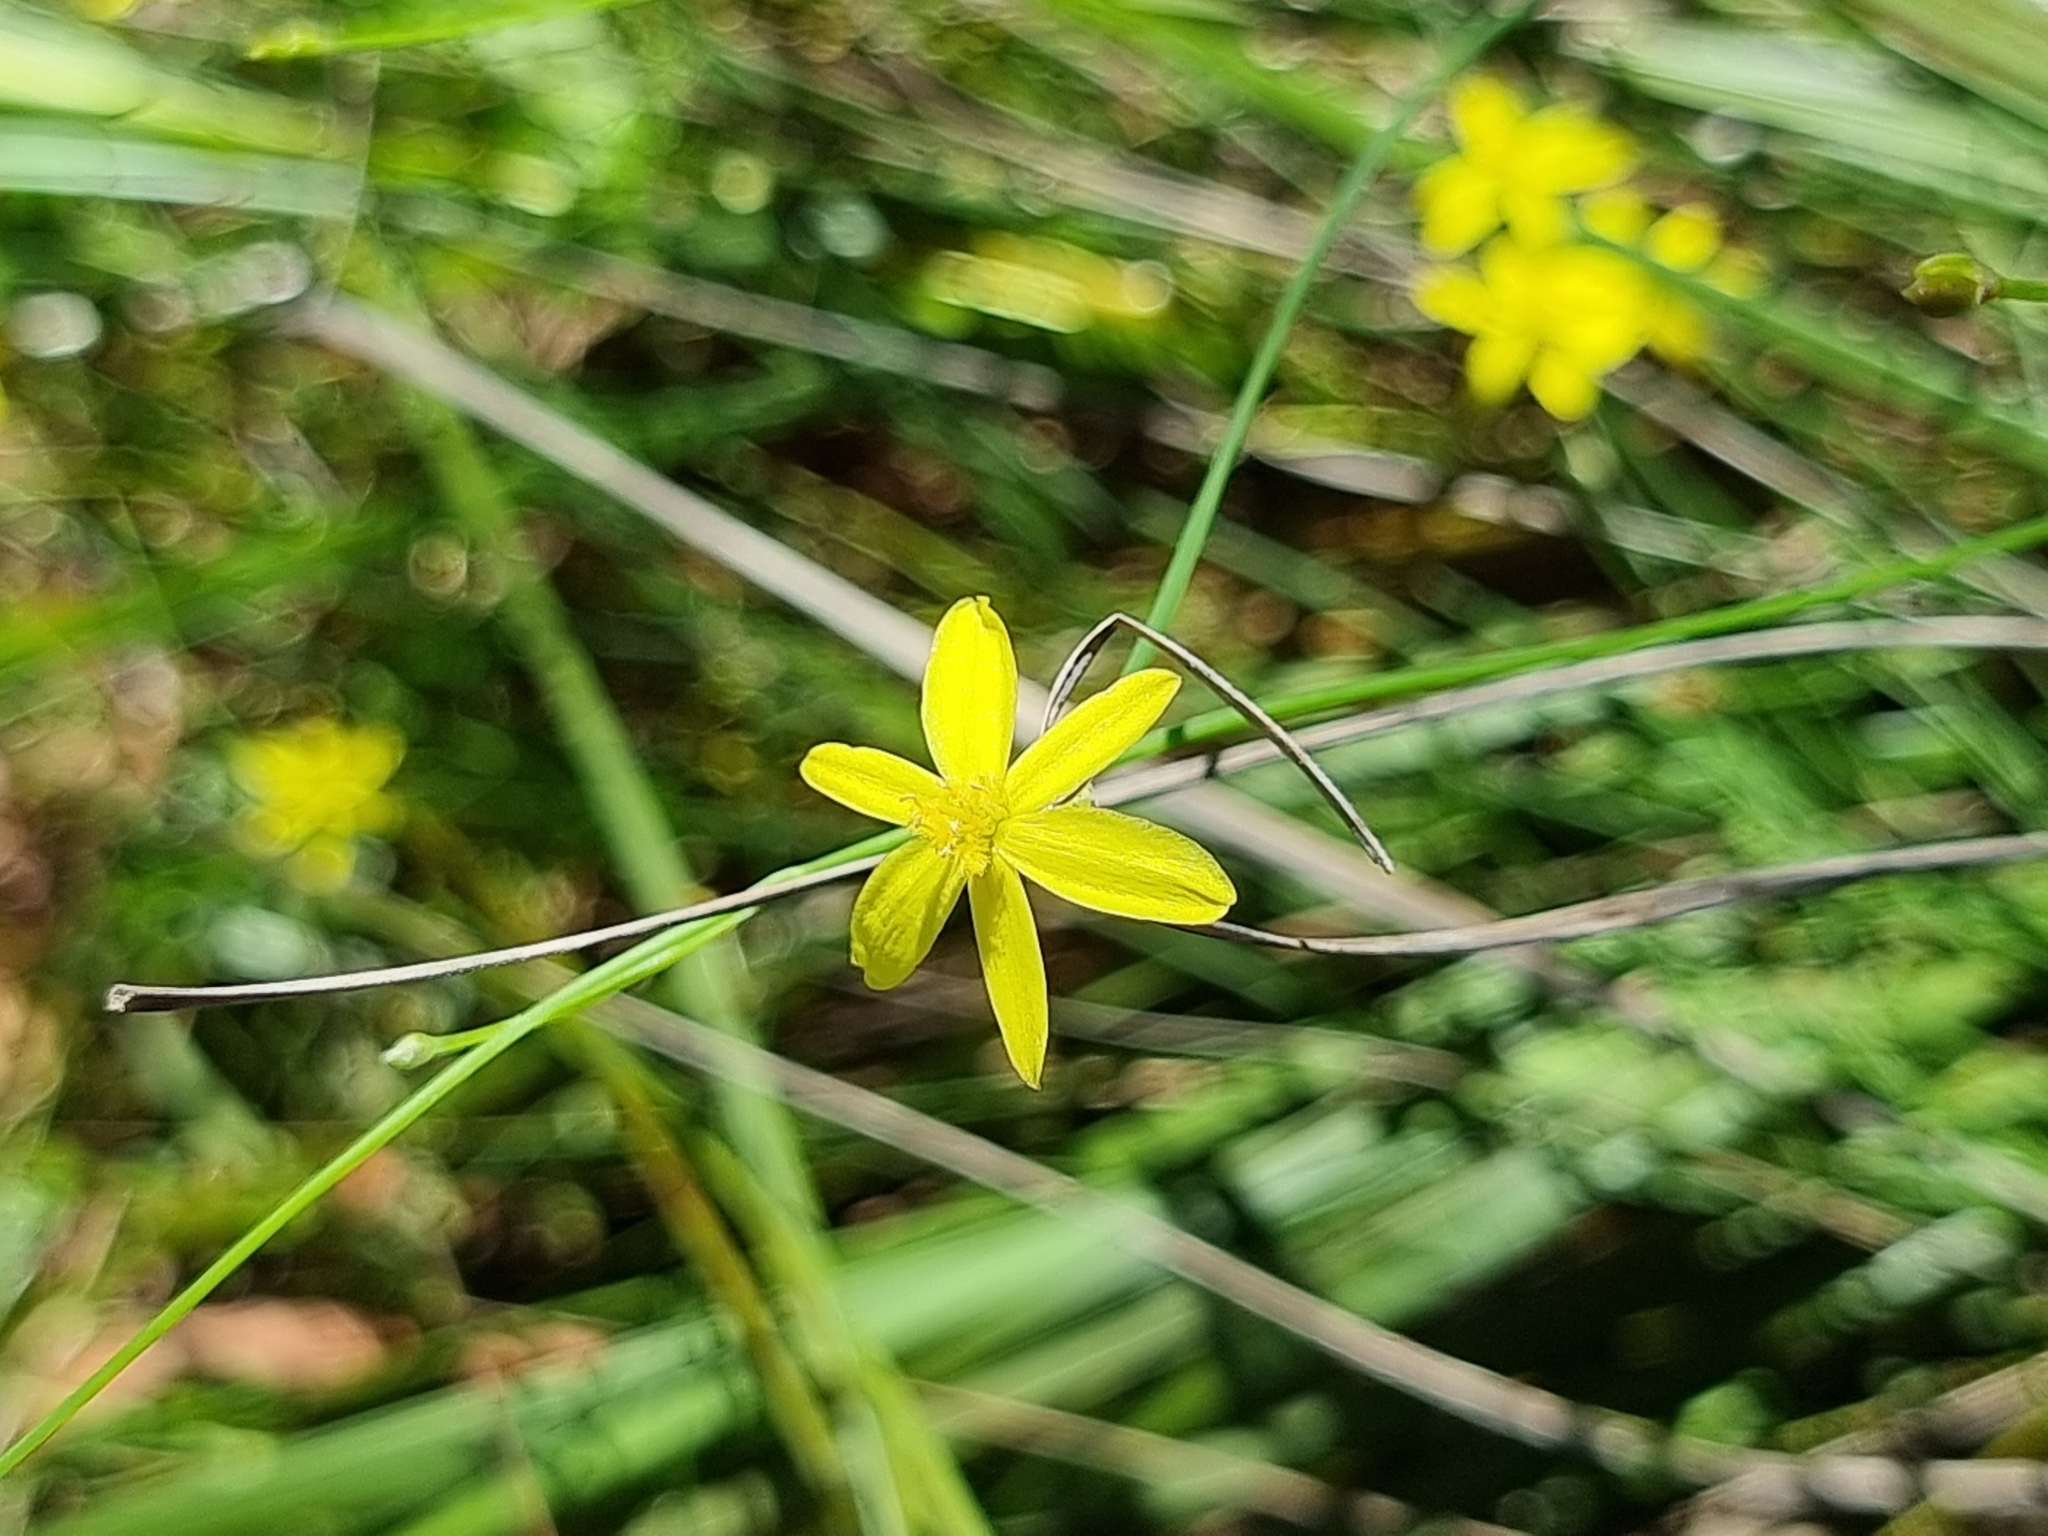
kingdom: Plantae
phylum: Tracheophyta
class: Liliopsida
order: Asparagales
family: Asphodelaceae
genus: Tricoryne
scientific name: Tricoryne elatior
